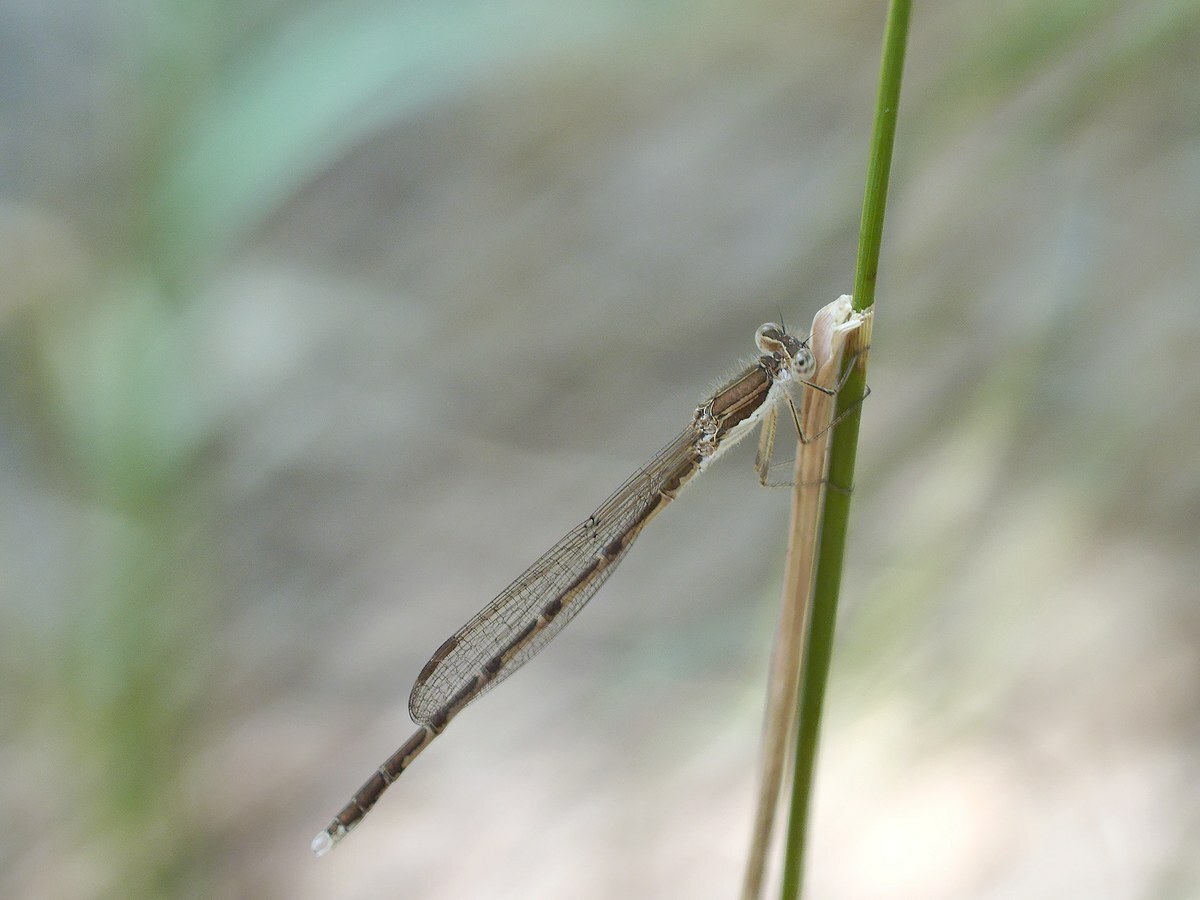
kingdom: Animalia
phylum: Arthropoda
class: Insecta
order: Odonata
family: Lestidae
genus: Sympecma
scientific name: Sympecma fusca
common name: Common winter damsel
